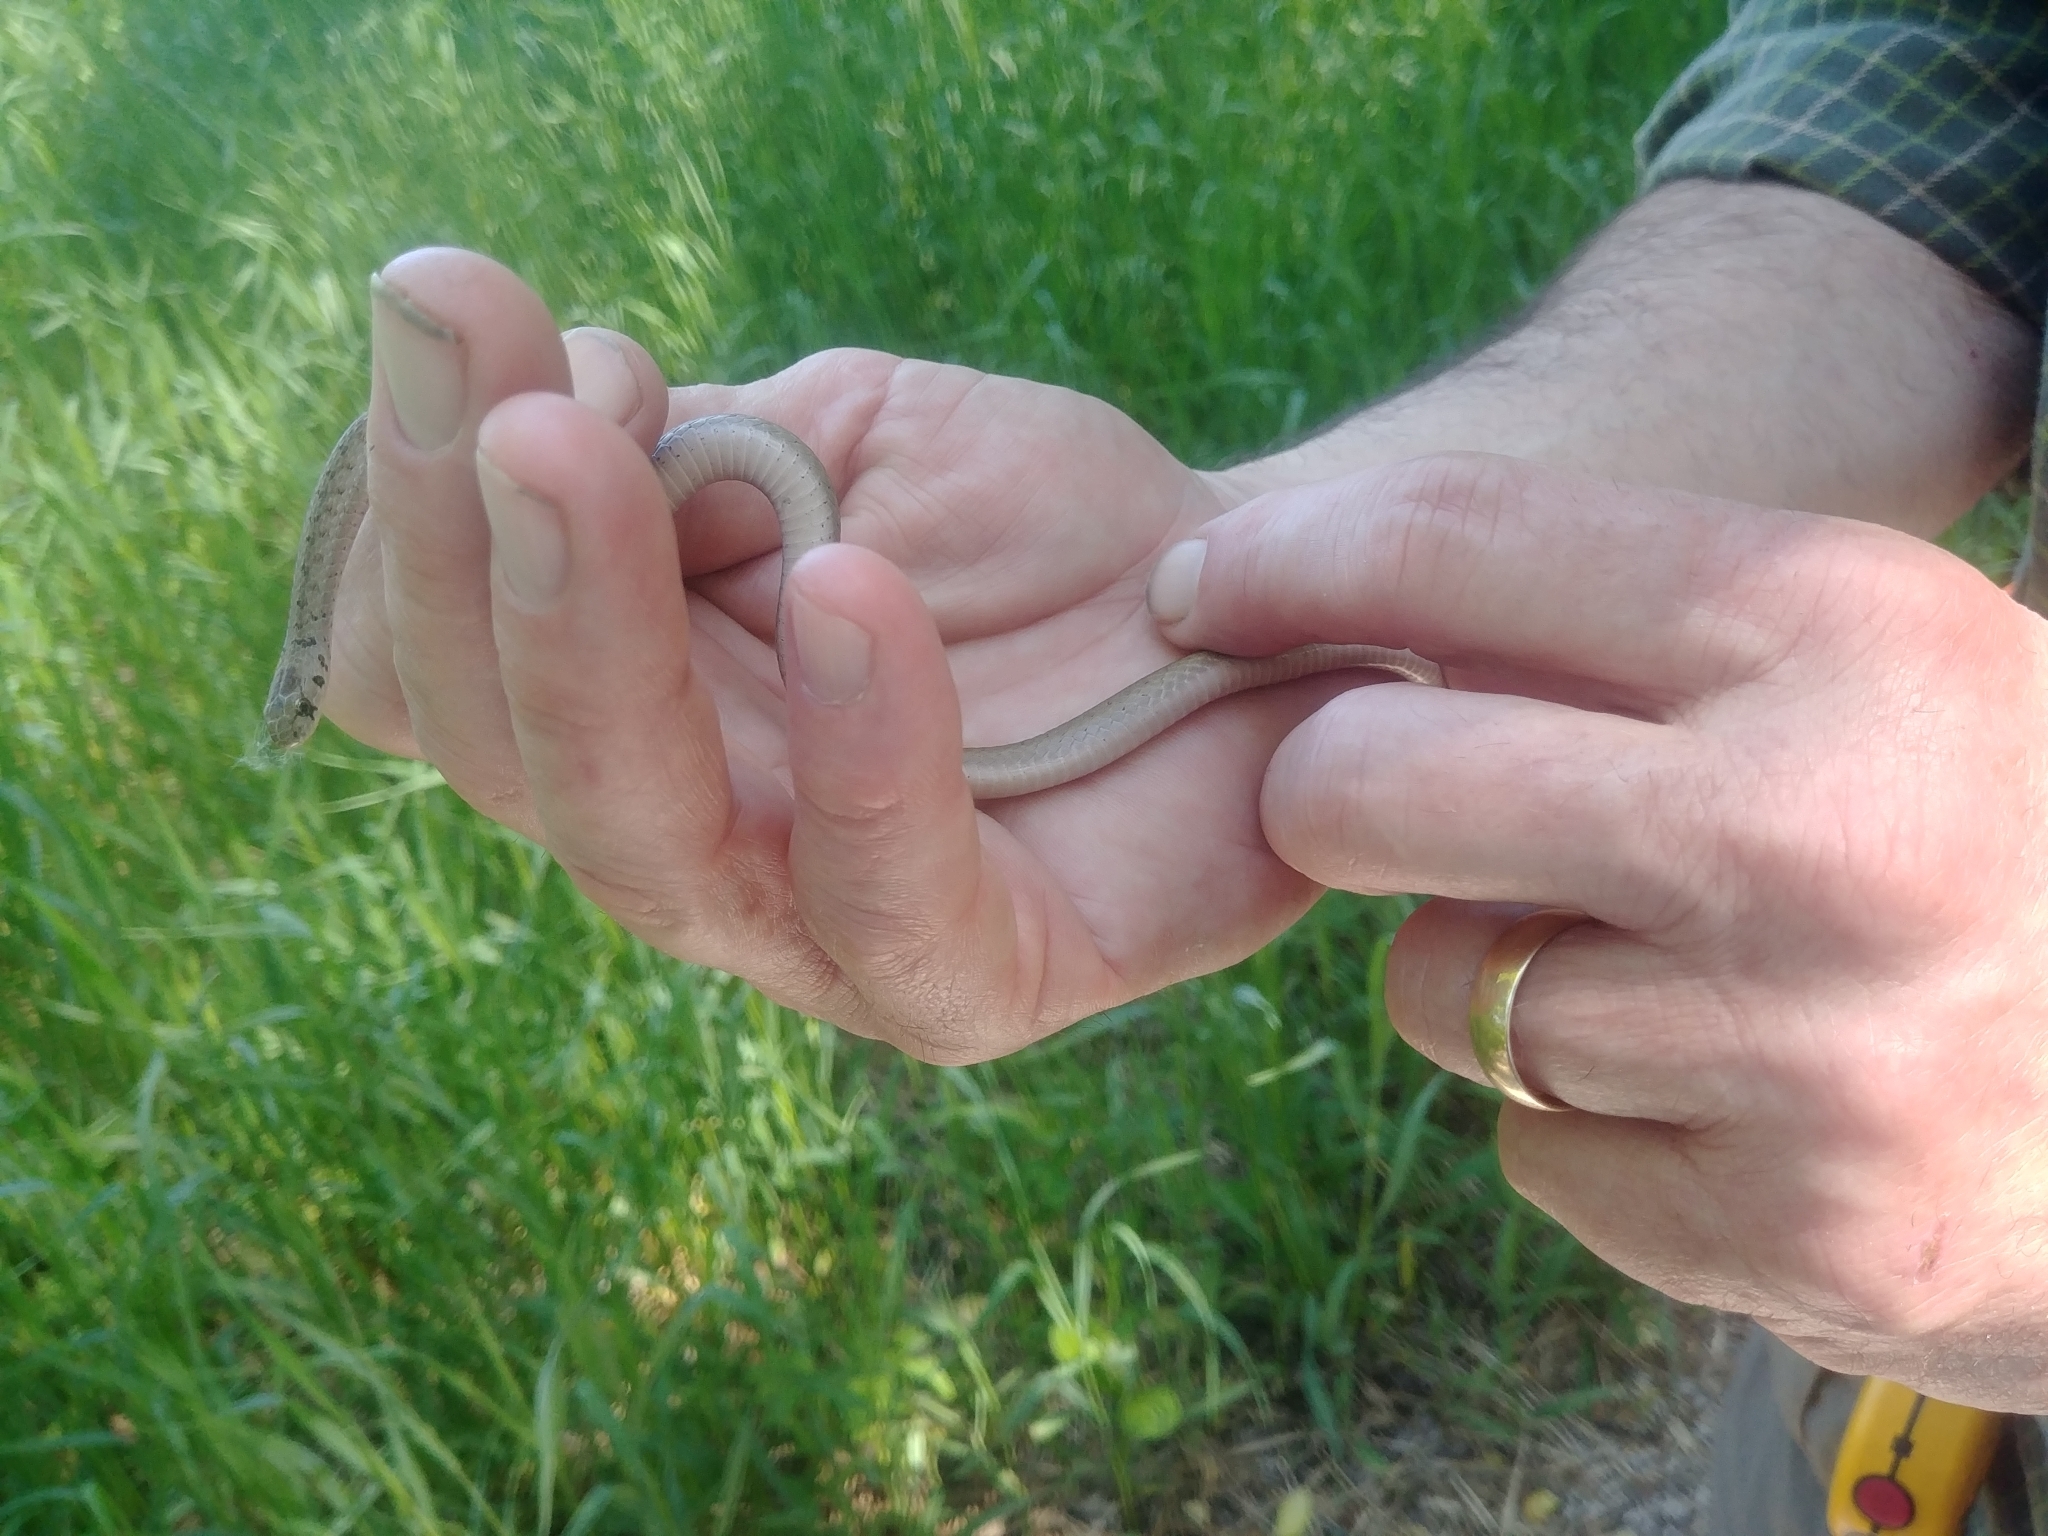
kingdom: Animalia
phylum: Chordata
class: Squamata
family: Colubridae
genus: Storeria
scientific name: Storeria dekayi
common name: (dekay’s) brown snake
